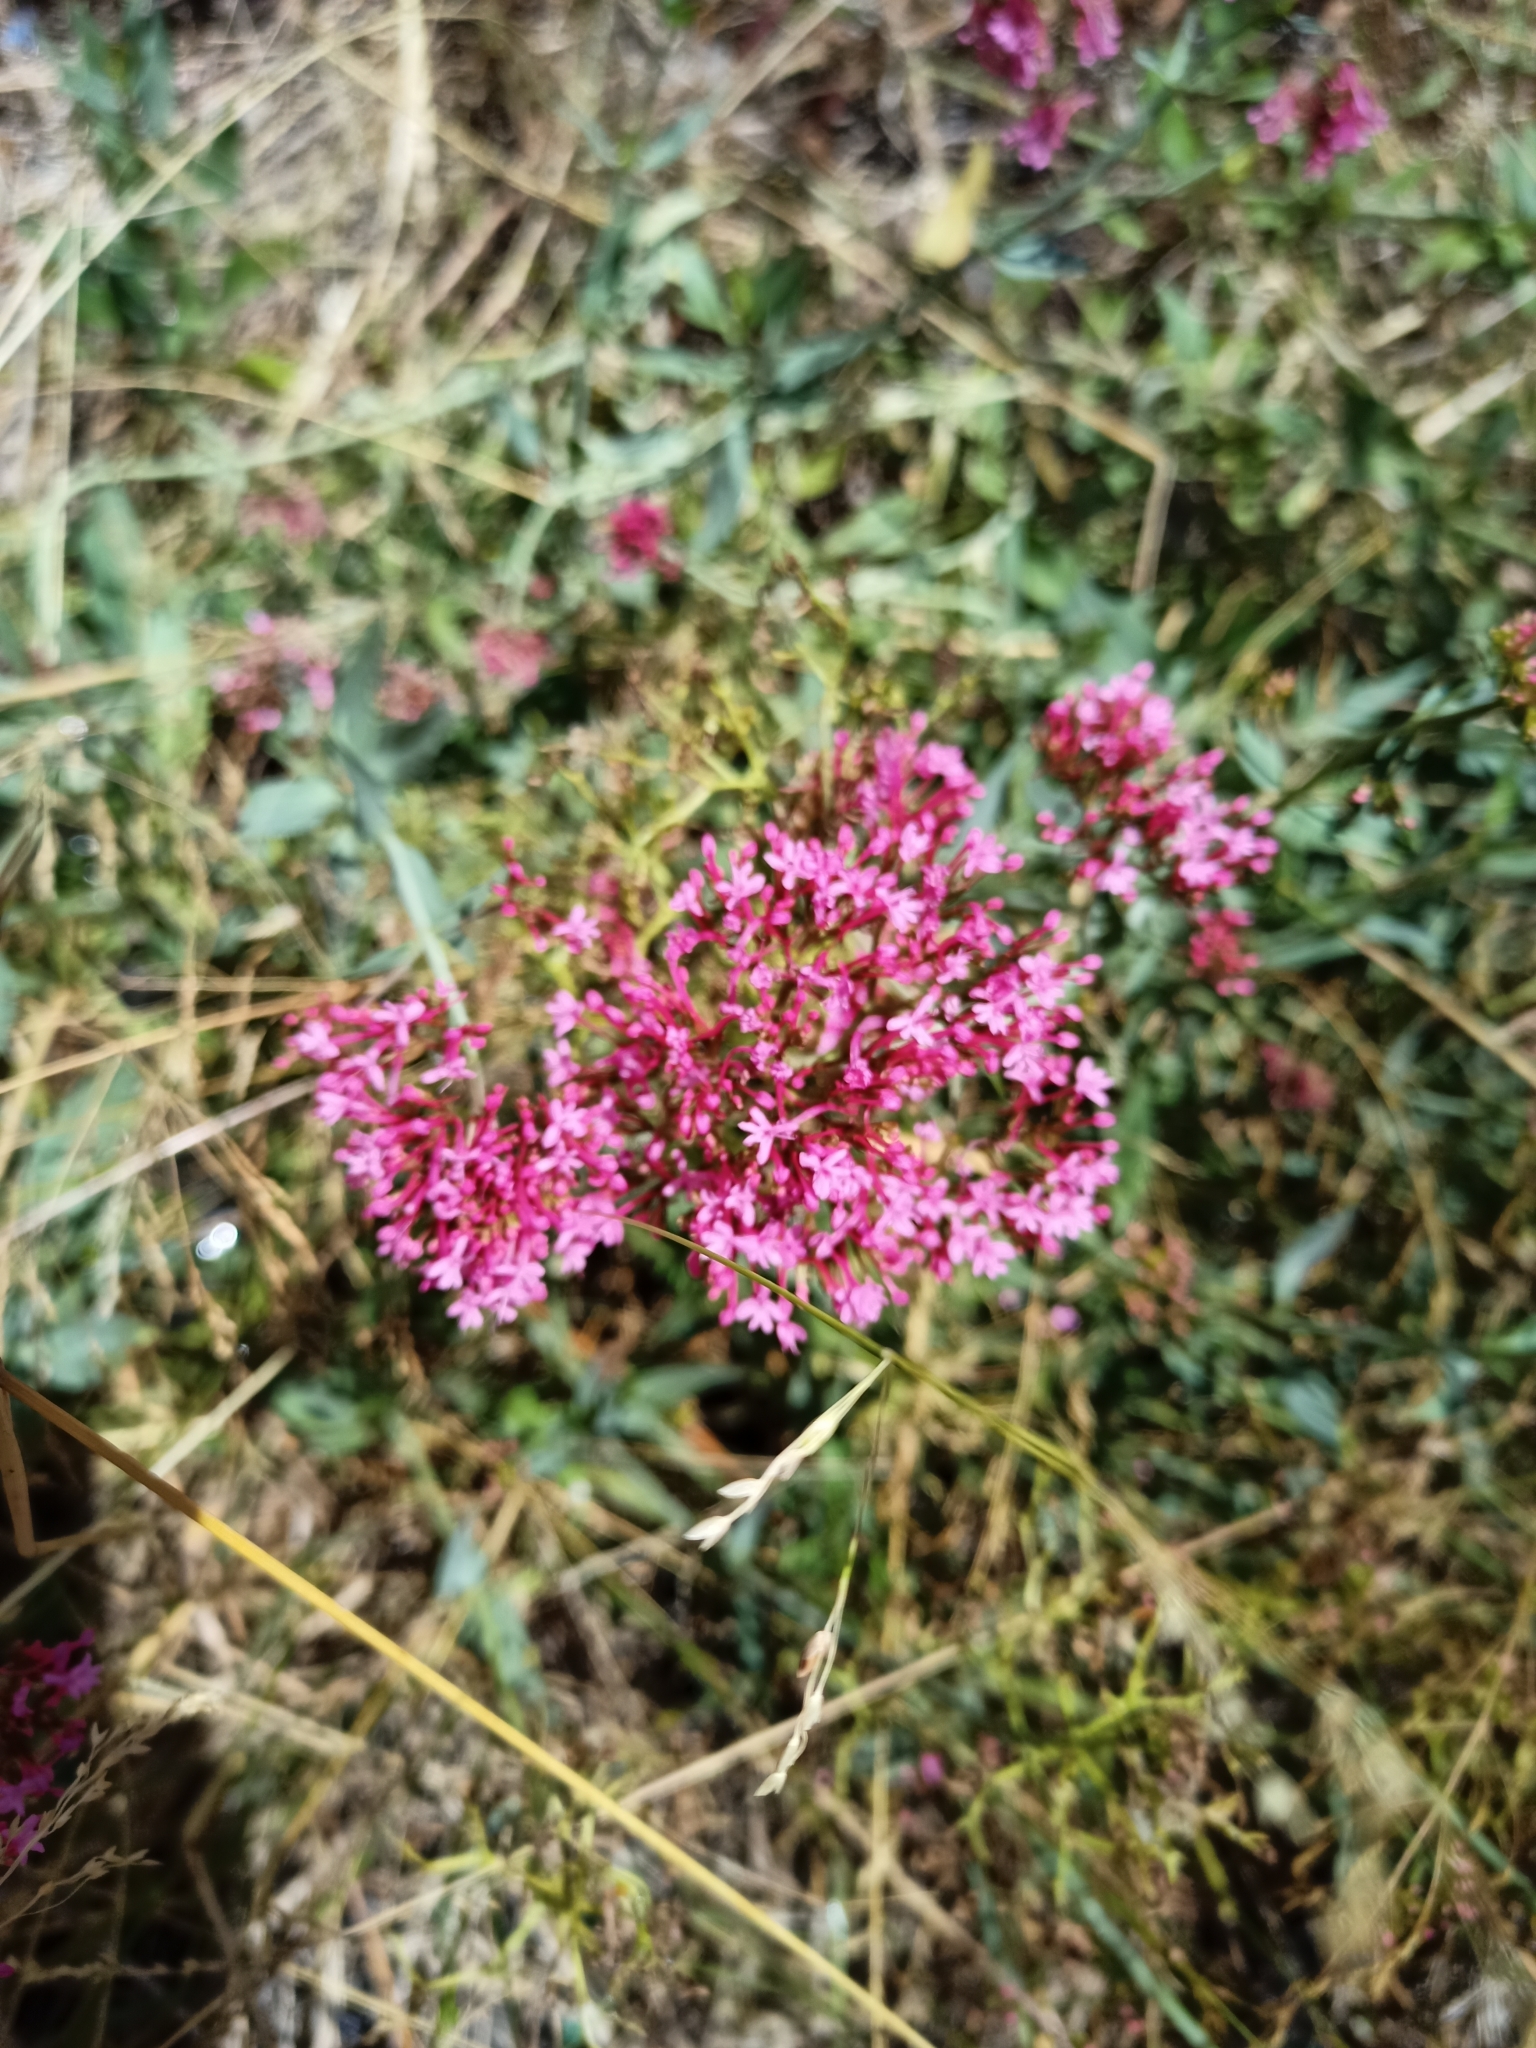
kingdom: Plantae
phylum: Tracheophyta
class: Magnoliopsida
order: Dipsacales
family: Caprifoliaceae
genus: Centranthus
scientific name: Centranthus ruber
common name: Red valerian
